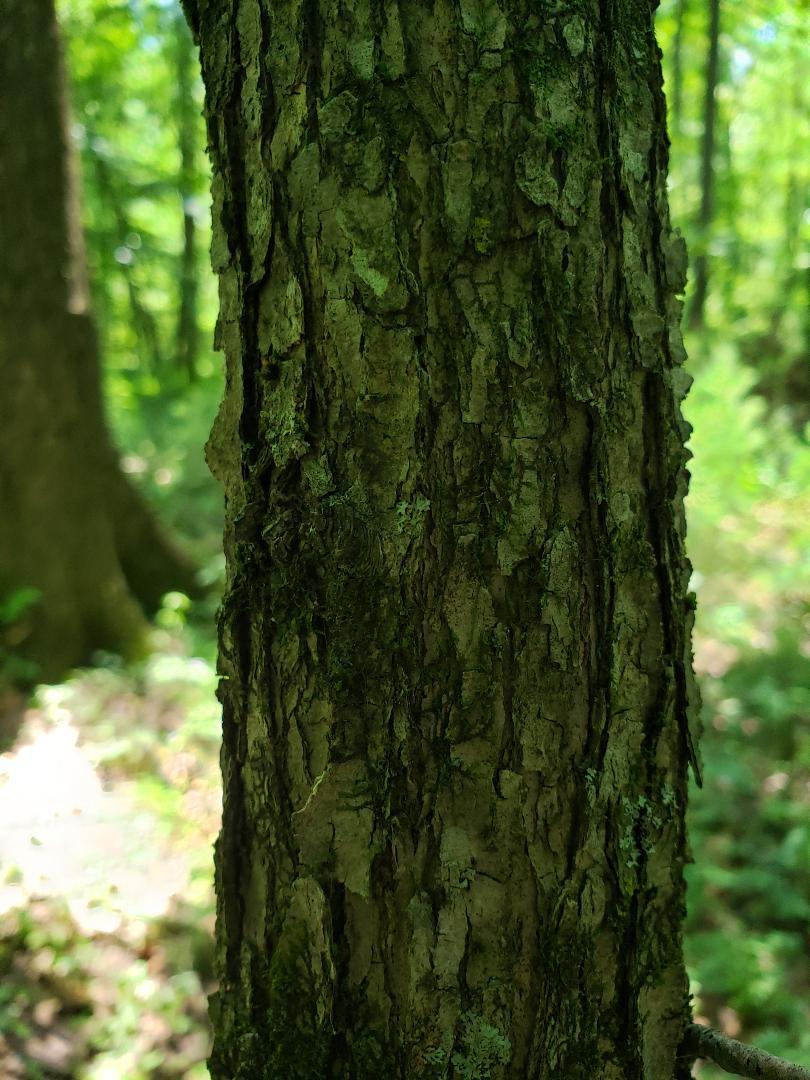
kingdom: Plantae
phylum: Tracheophyta
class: Magnoliopsida
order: Cornales
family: Nyssaceae
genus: Nyssa
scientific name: Nyssa sylvatica
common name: Black tupelo
